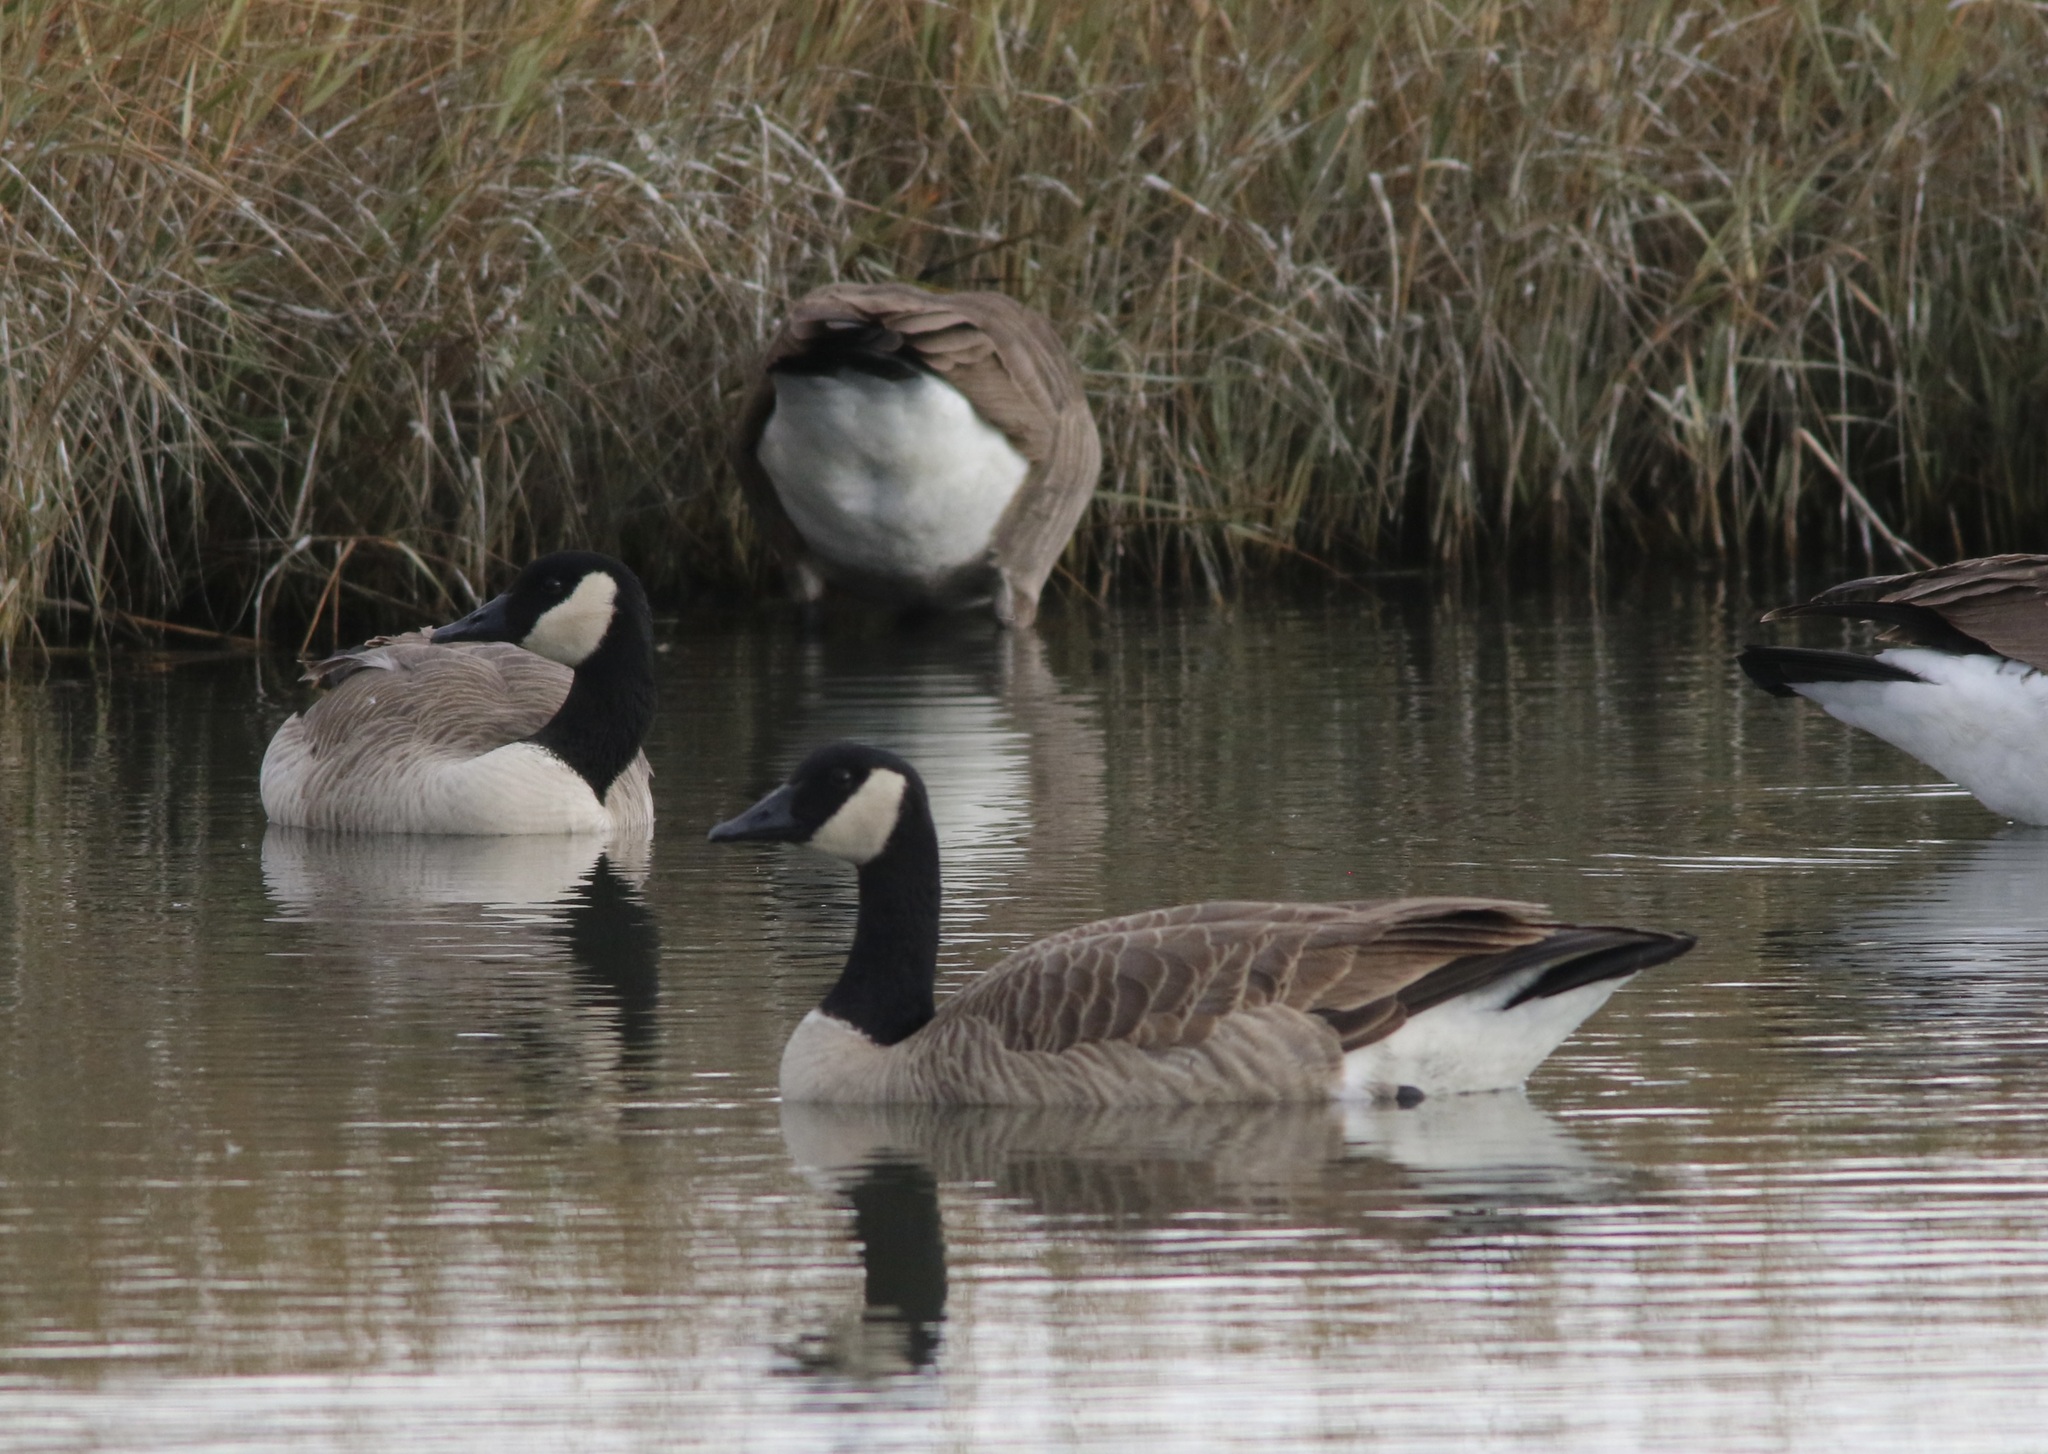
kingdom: Animalia
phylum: Chordata
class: Aves
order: Anseriformes
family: Anatidae
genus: Branta
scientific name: Branta canadensis
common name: Canada goose
